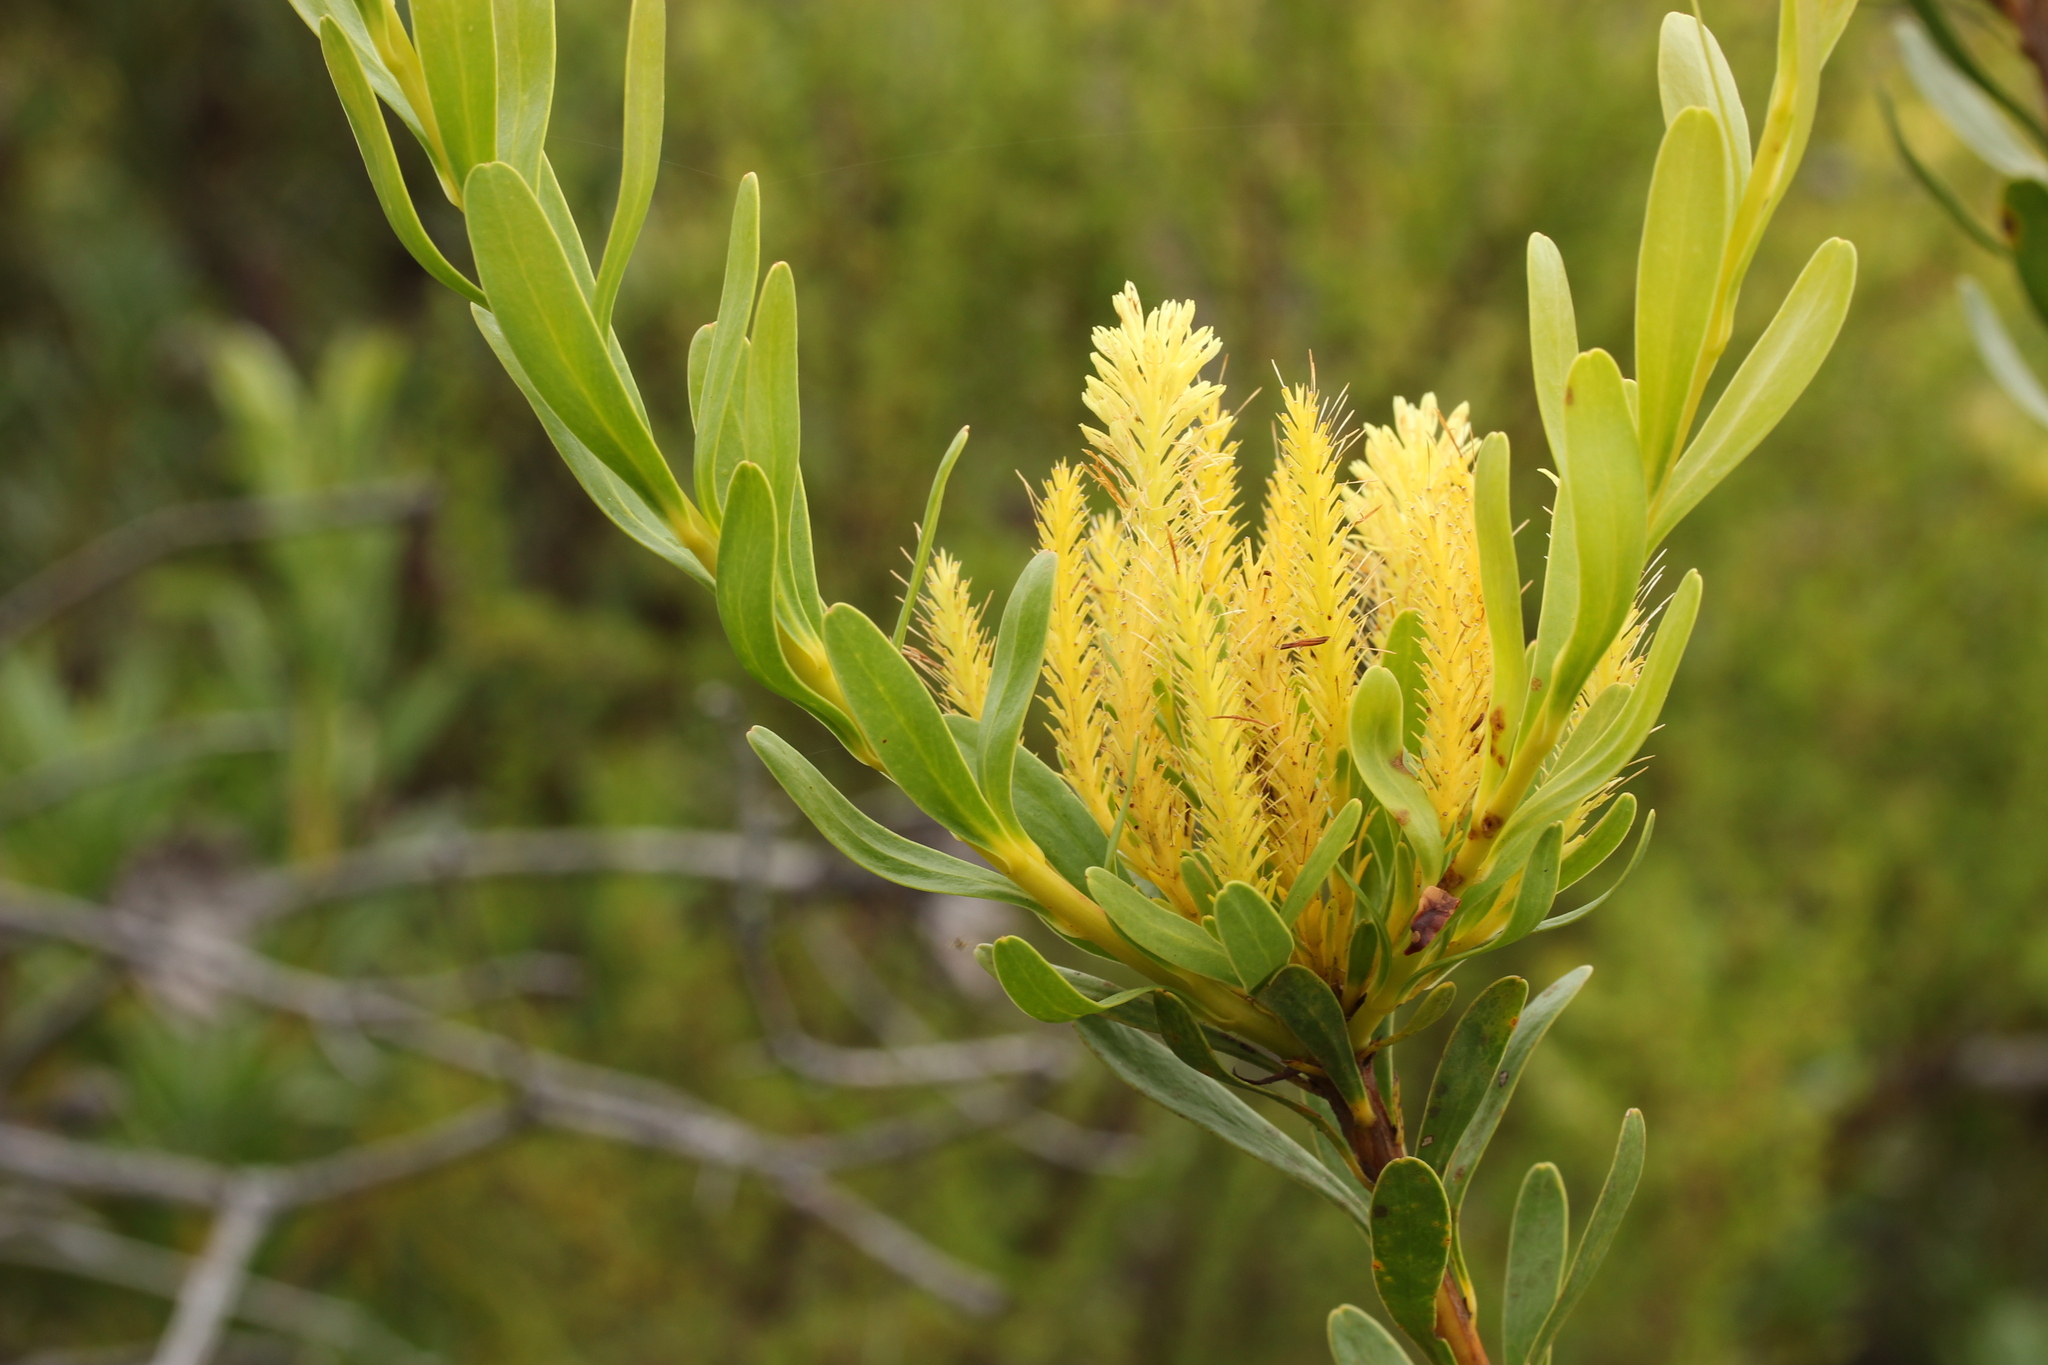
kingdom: Plantae
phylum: Tracheophyta
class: Magnoliopsida
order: Proteales
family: Proteaceae
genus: Aulax
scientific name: Aulax umbellata
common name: Broad-leaf featherbush
